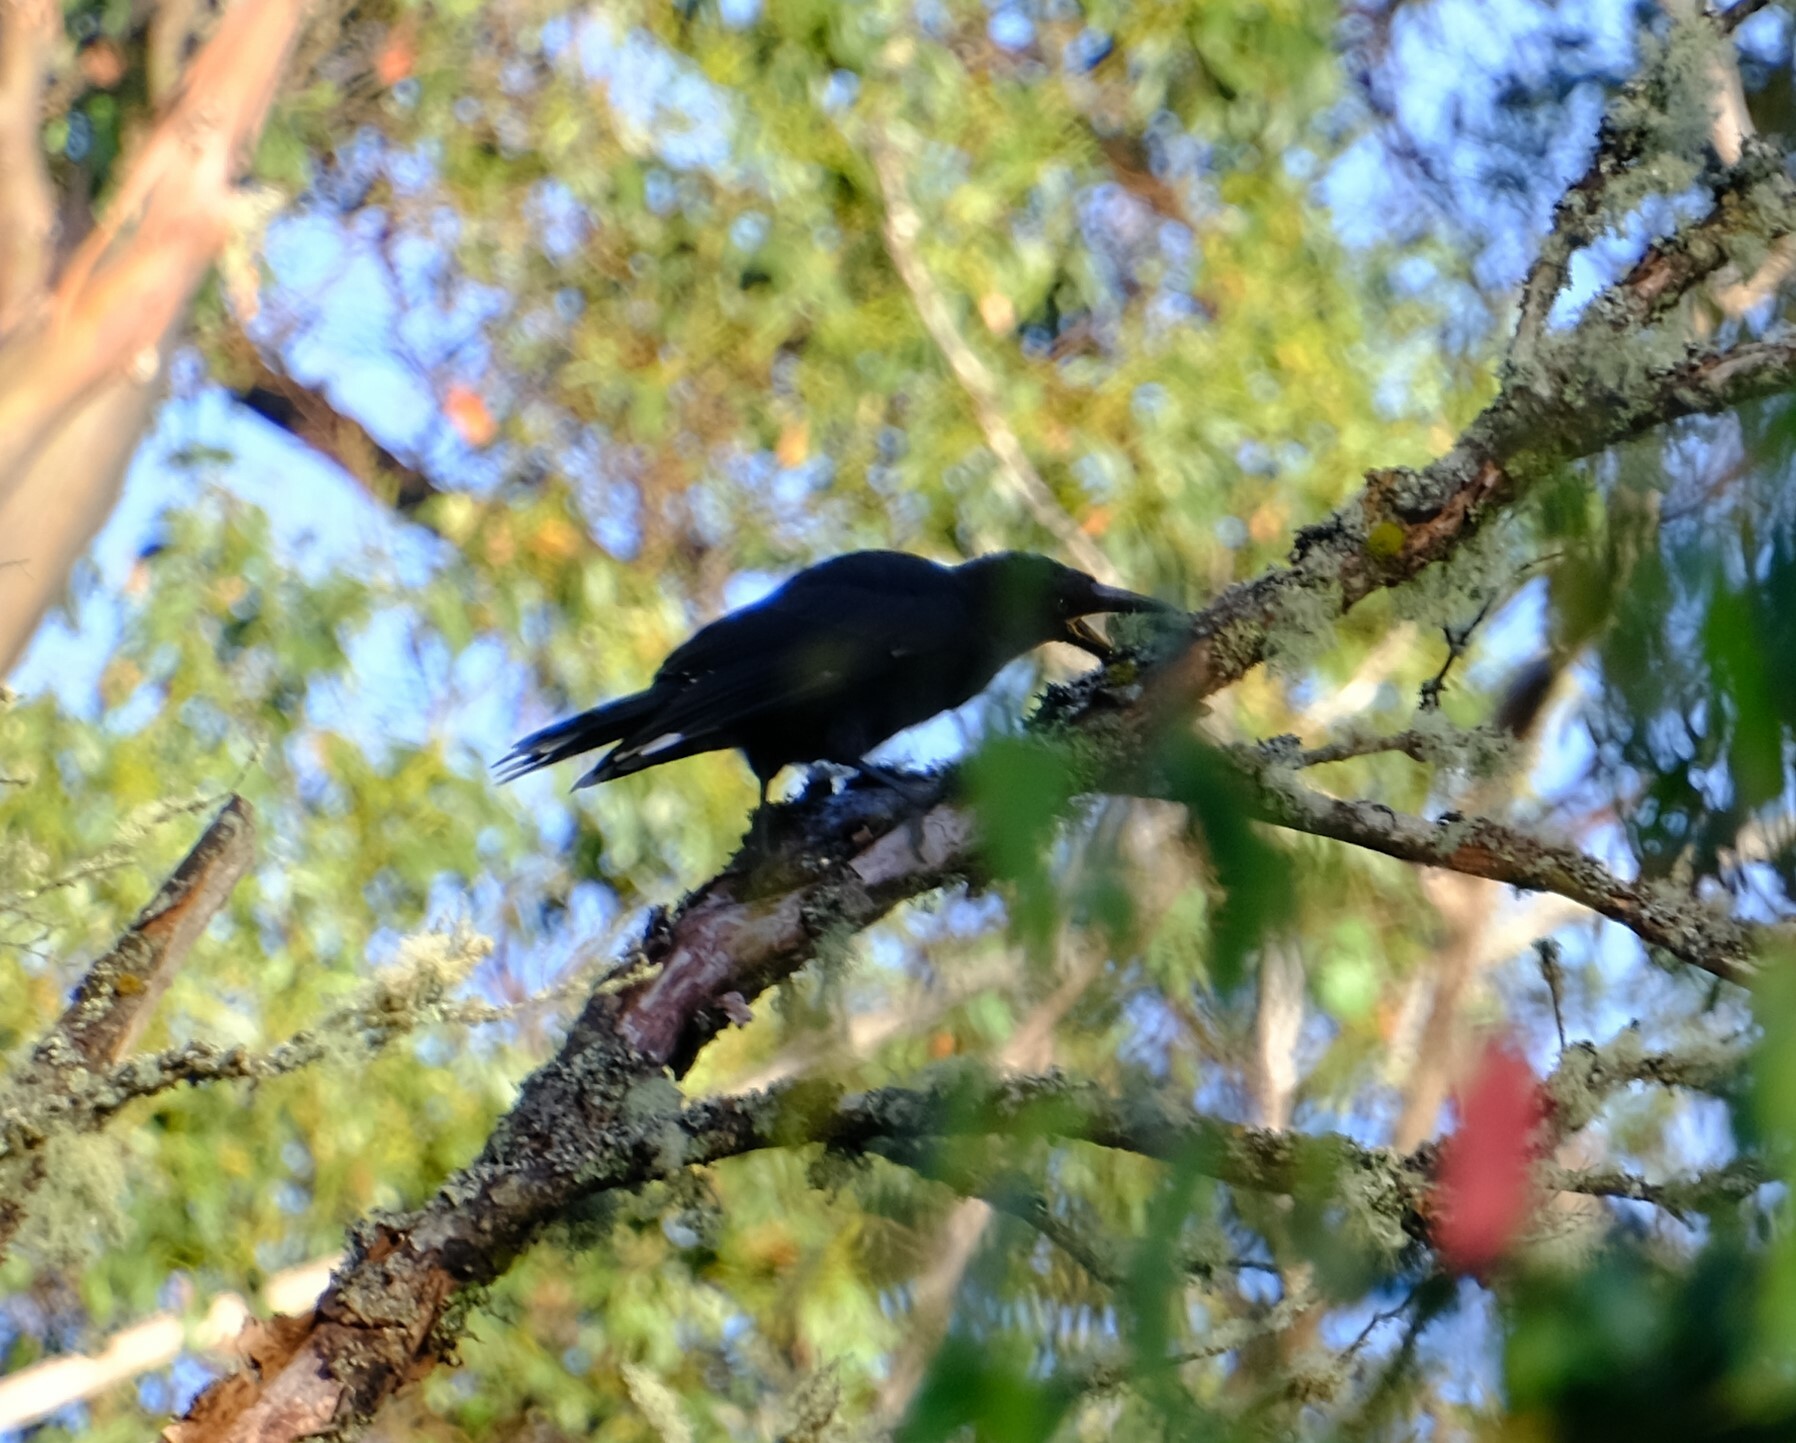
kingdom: Animalia
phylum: Chordata
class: Aves
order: Passeriformes
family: Cracticidae
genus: Strepera
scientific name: Strepera fuliginosa
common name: Black currawong
